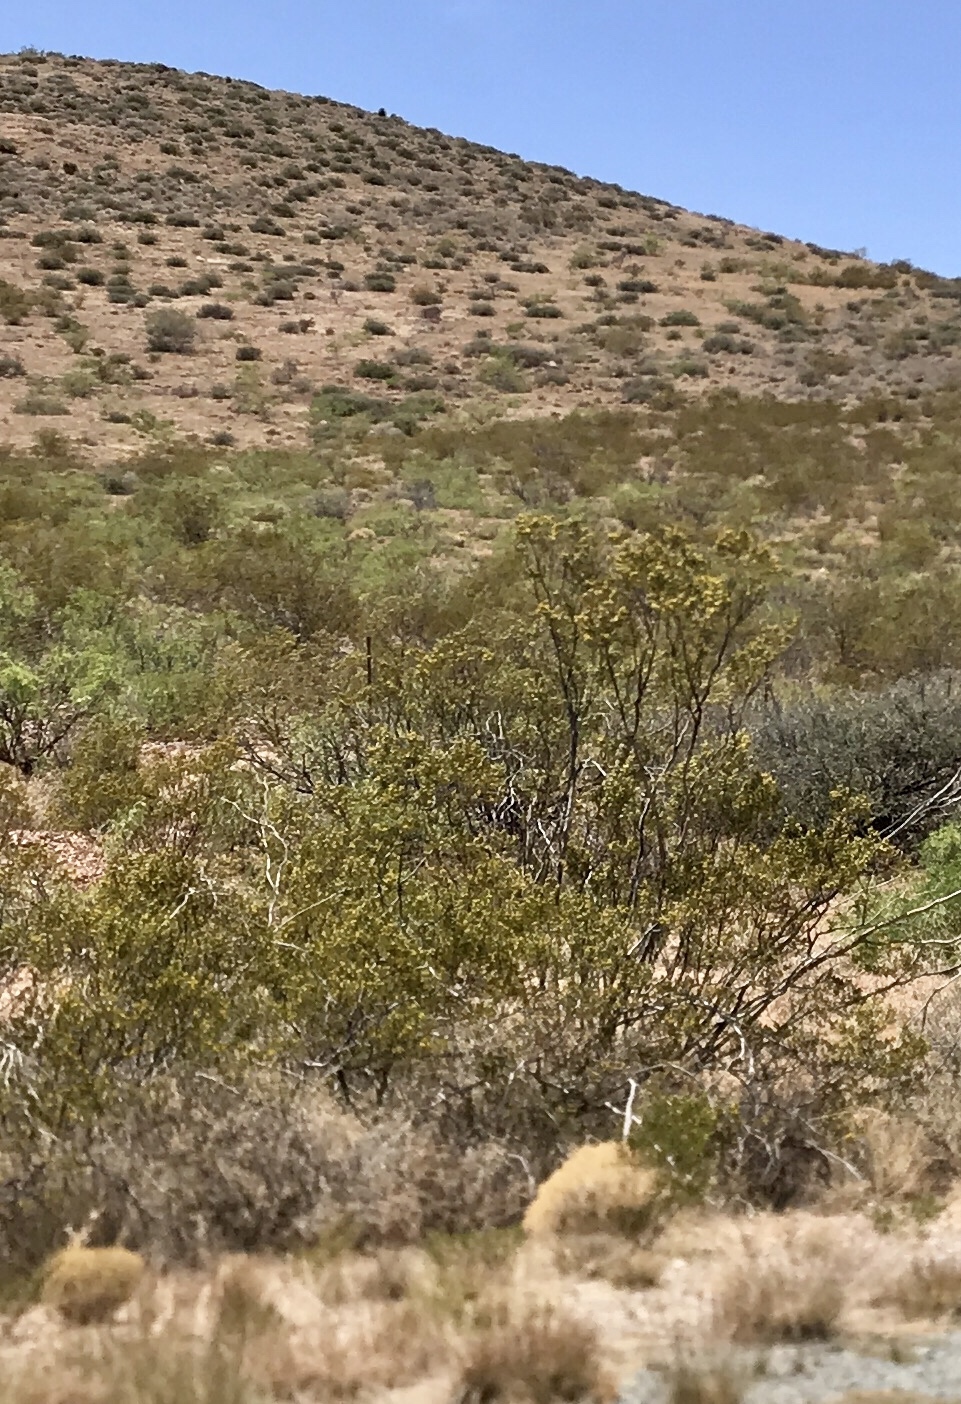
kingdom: Plantae
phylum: Tracheophyta
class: Magnoliopsida
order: Zygophyllales
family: Zygophyllaceae
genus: Larrea
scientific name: Larrea tridentata
